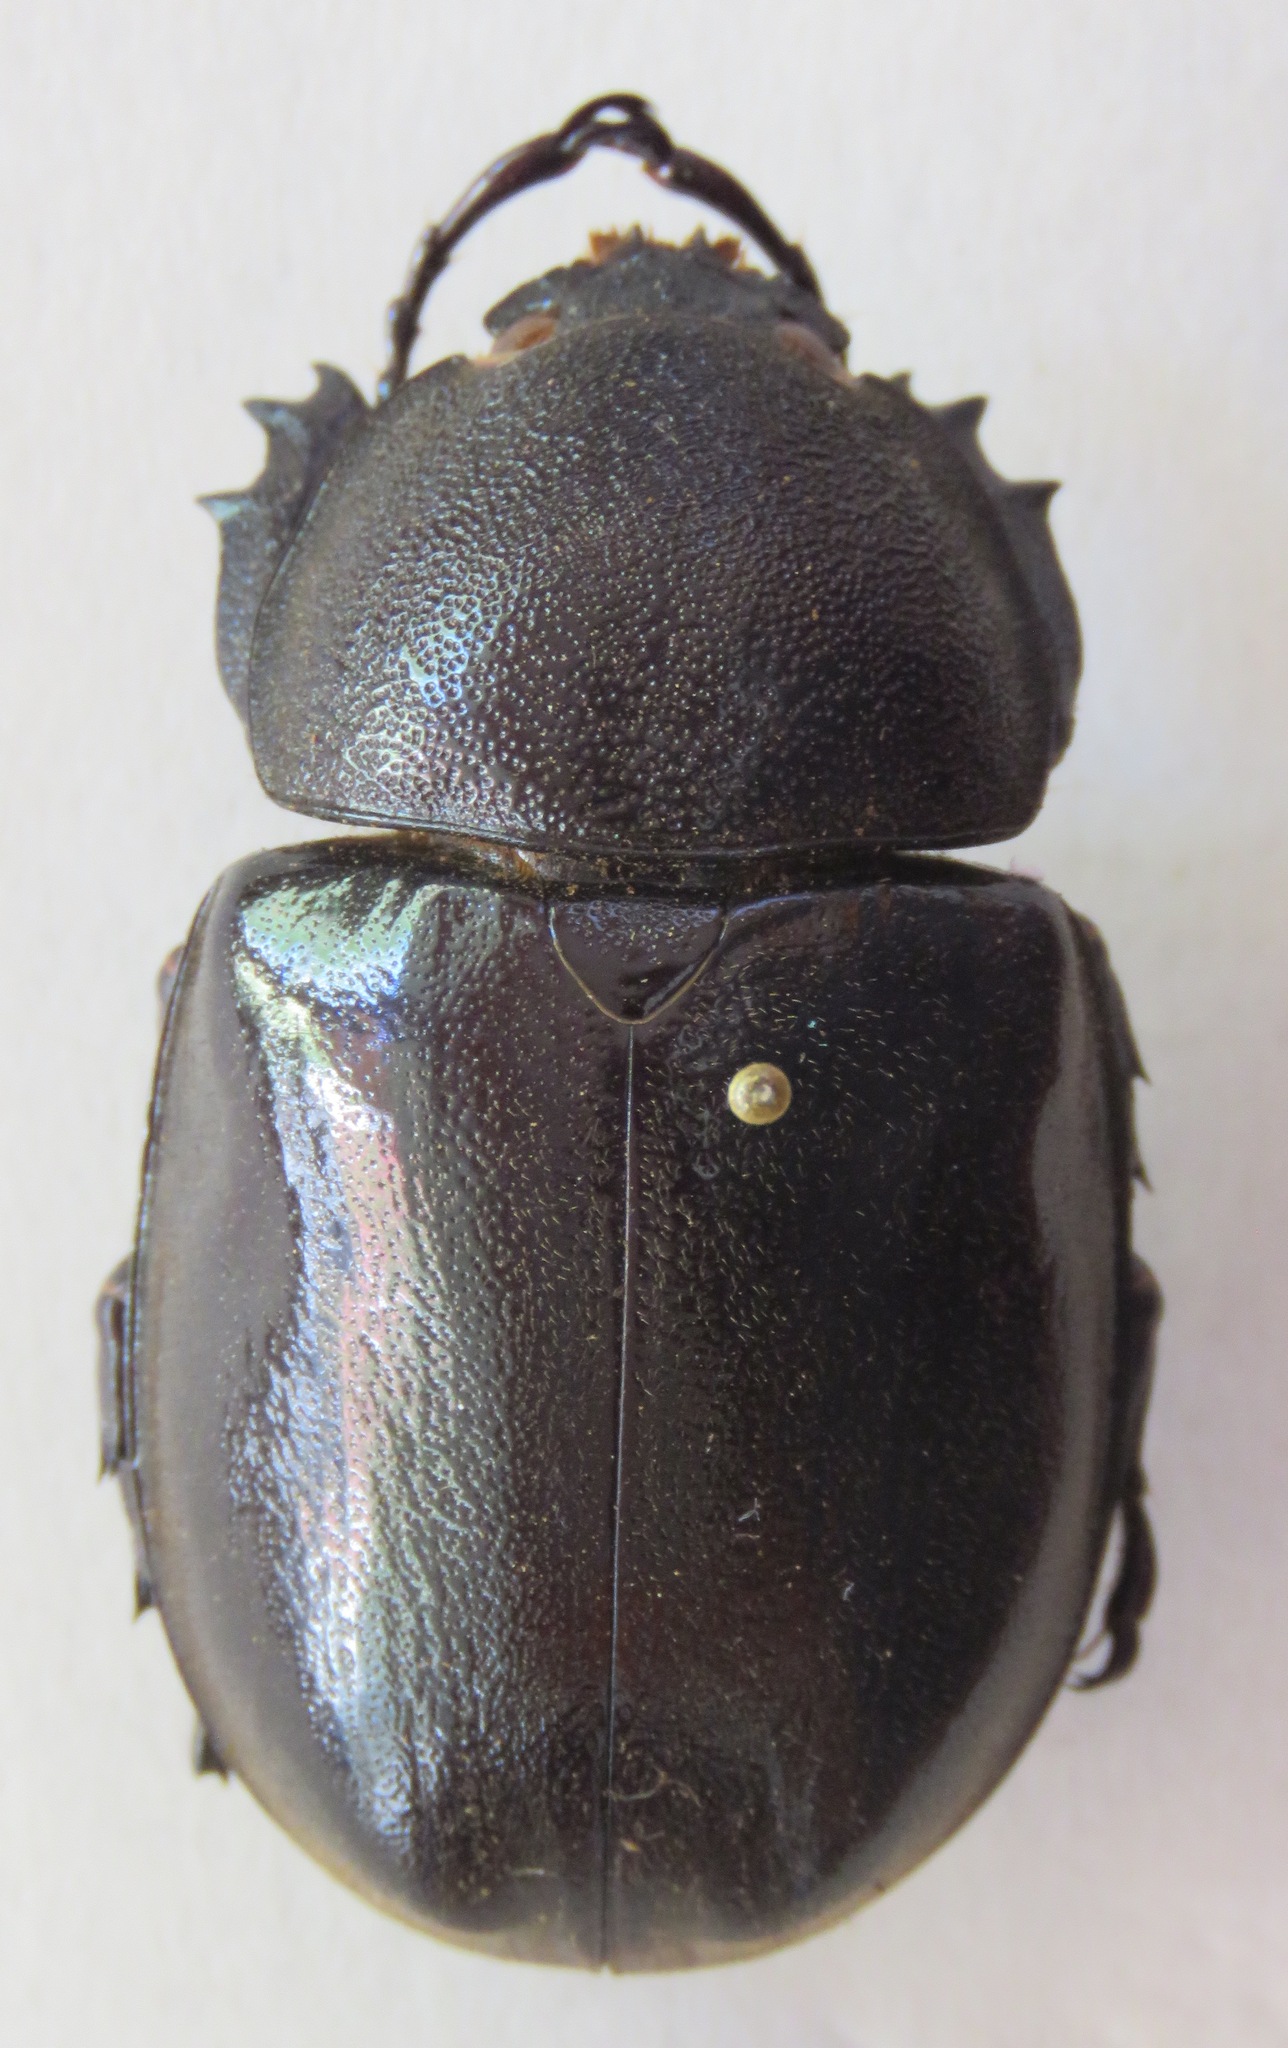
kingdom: Animalia
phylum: Arthropoda
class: Insecta
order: Coleoptera
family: Scarabaeidae
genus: Xylotrupes
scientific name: Xylotrupes sumatrensis
